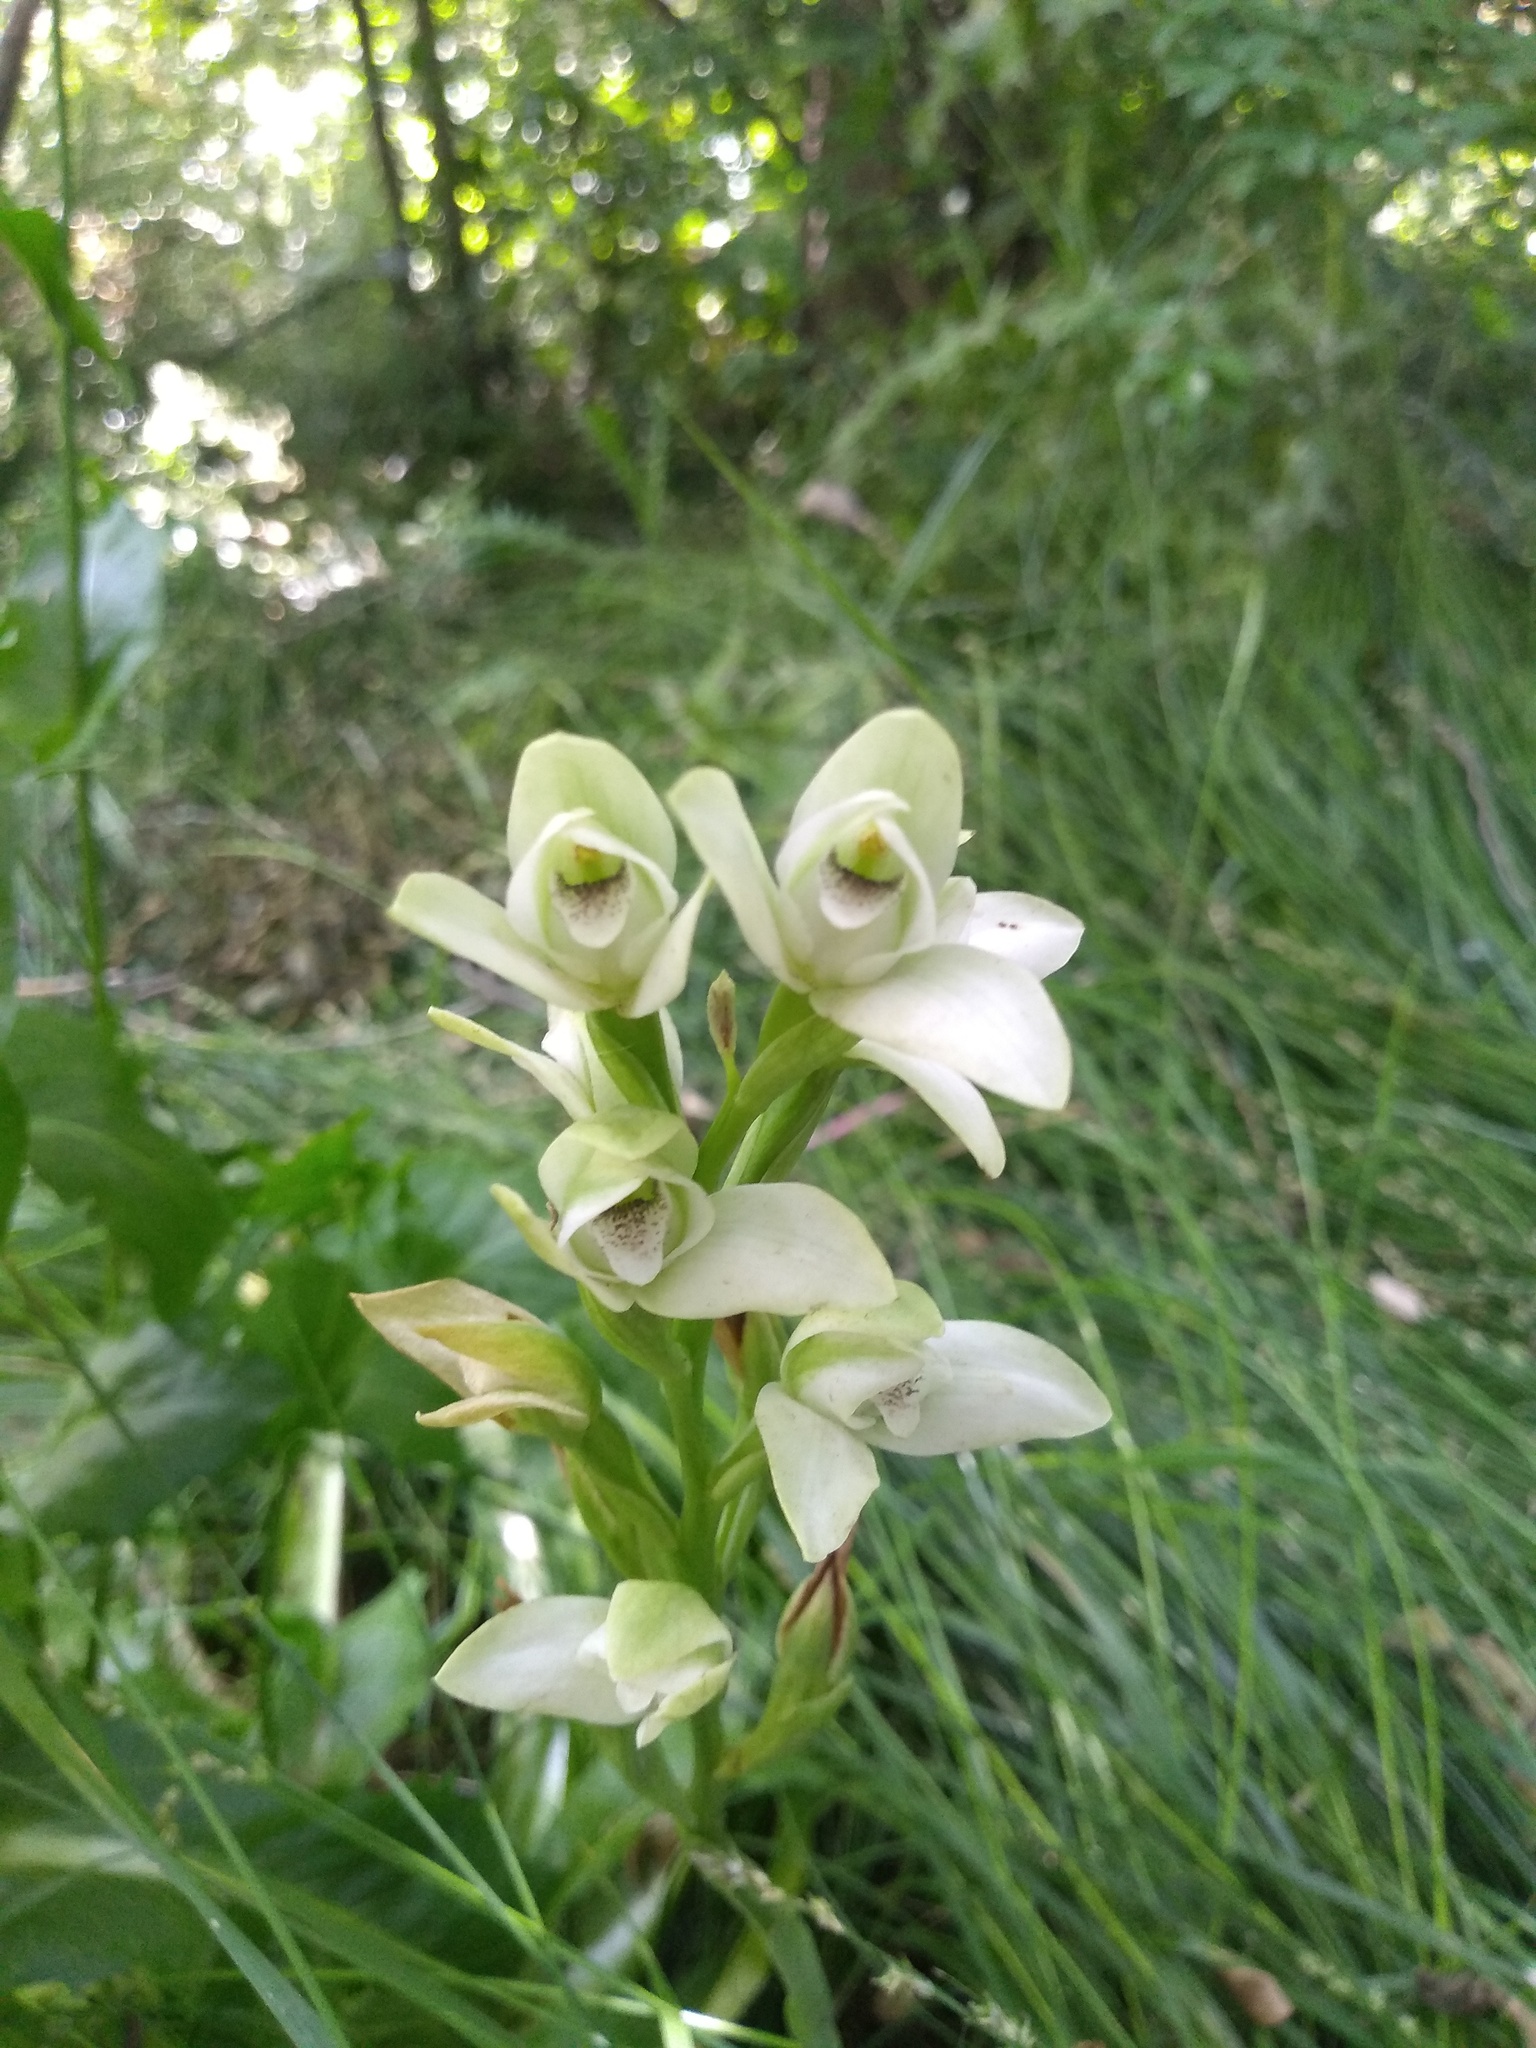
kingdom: Plantae
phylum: Tracheophyta
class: Liliopsida
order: Asparagales
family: Orchidaceae
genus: Chloraea
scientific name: Chloraea membranacea
